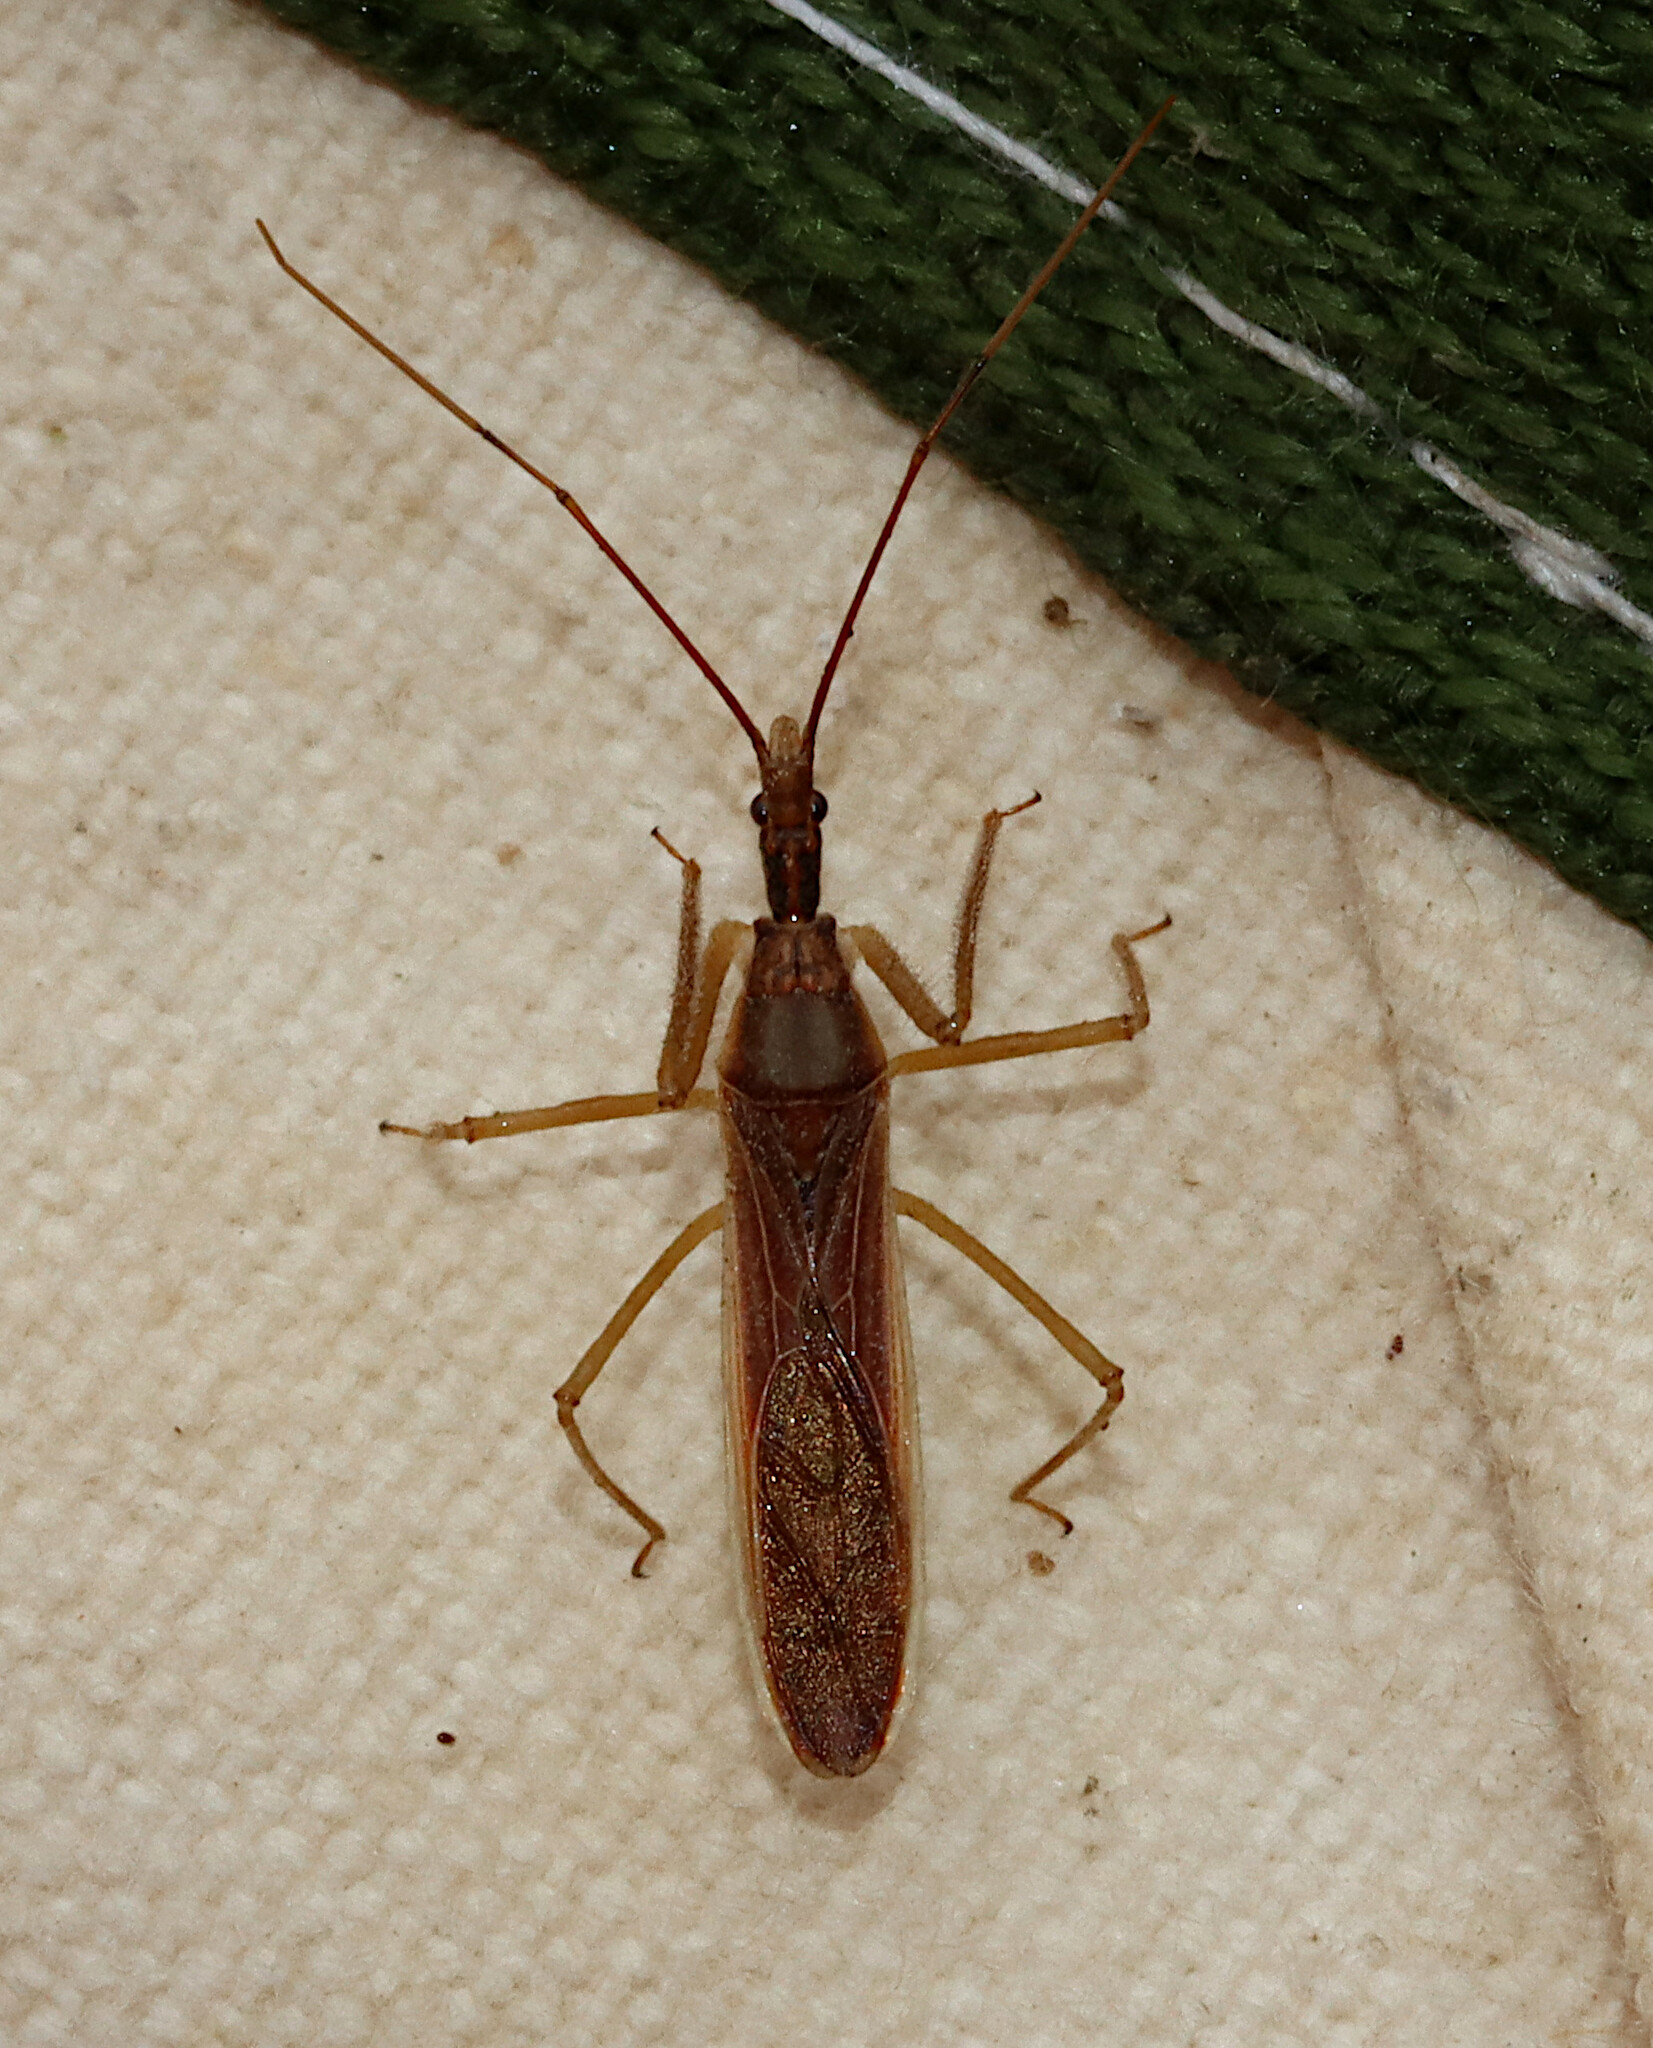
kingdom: Animalia
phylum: Arthropoda
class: Insecta
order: Hemiptera
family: Reduviidae
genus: Zelus
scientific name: Zelus cervicalis
